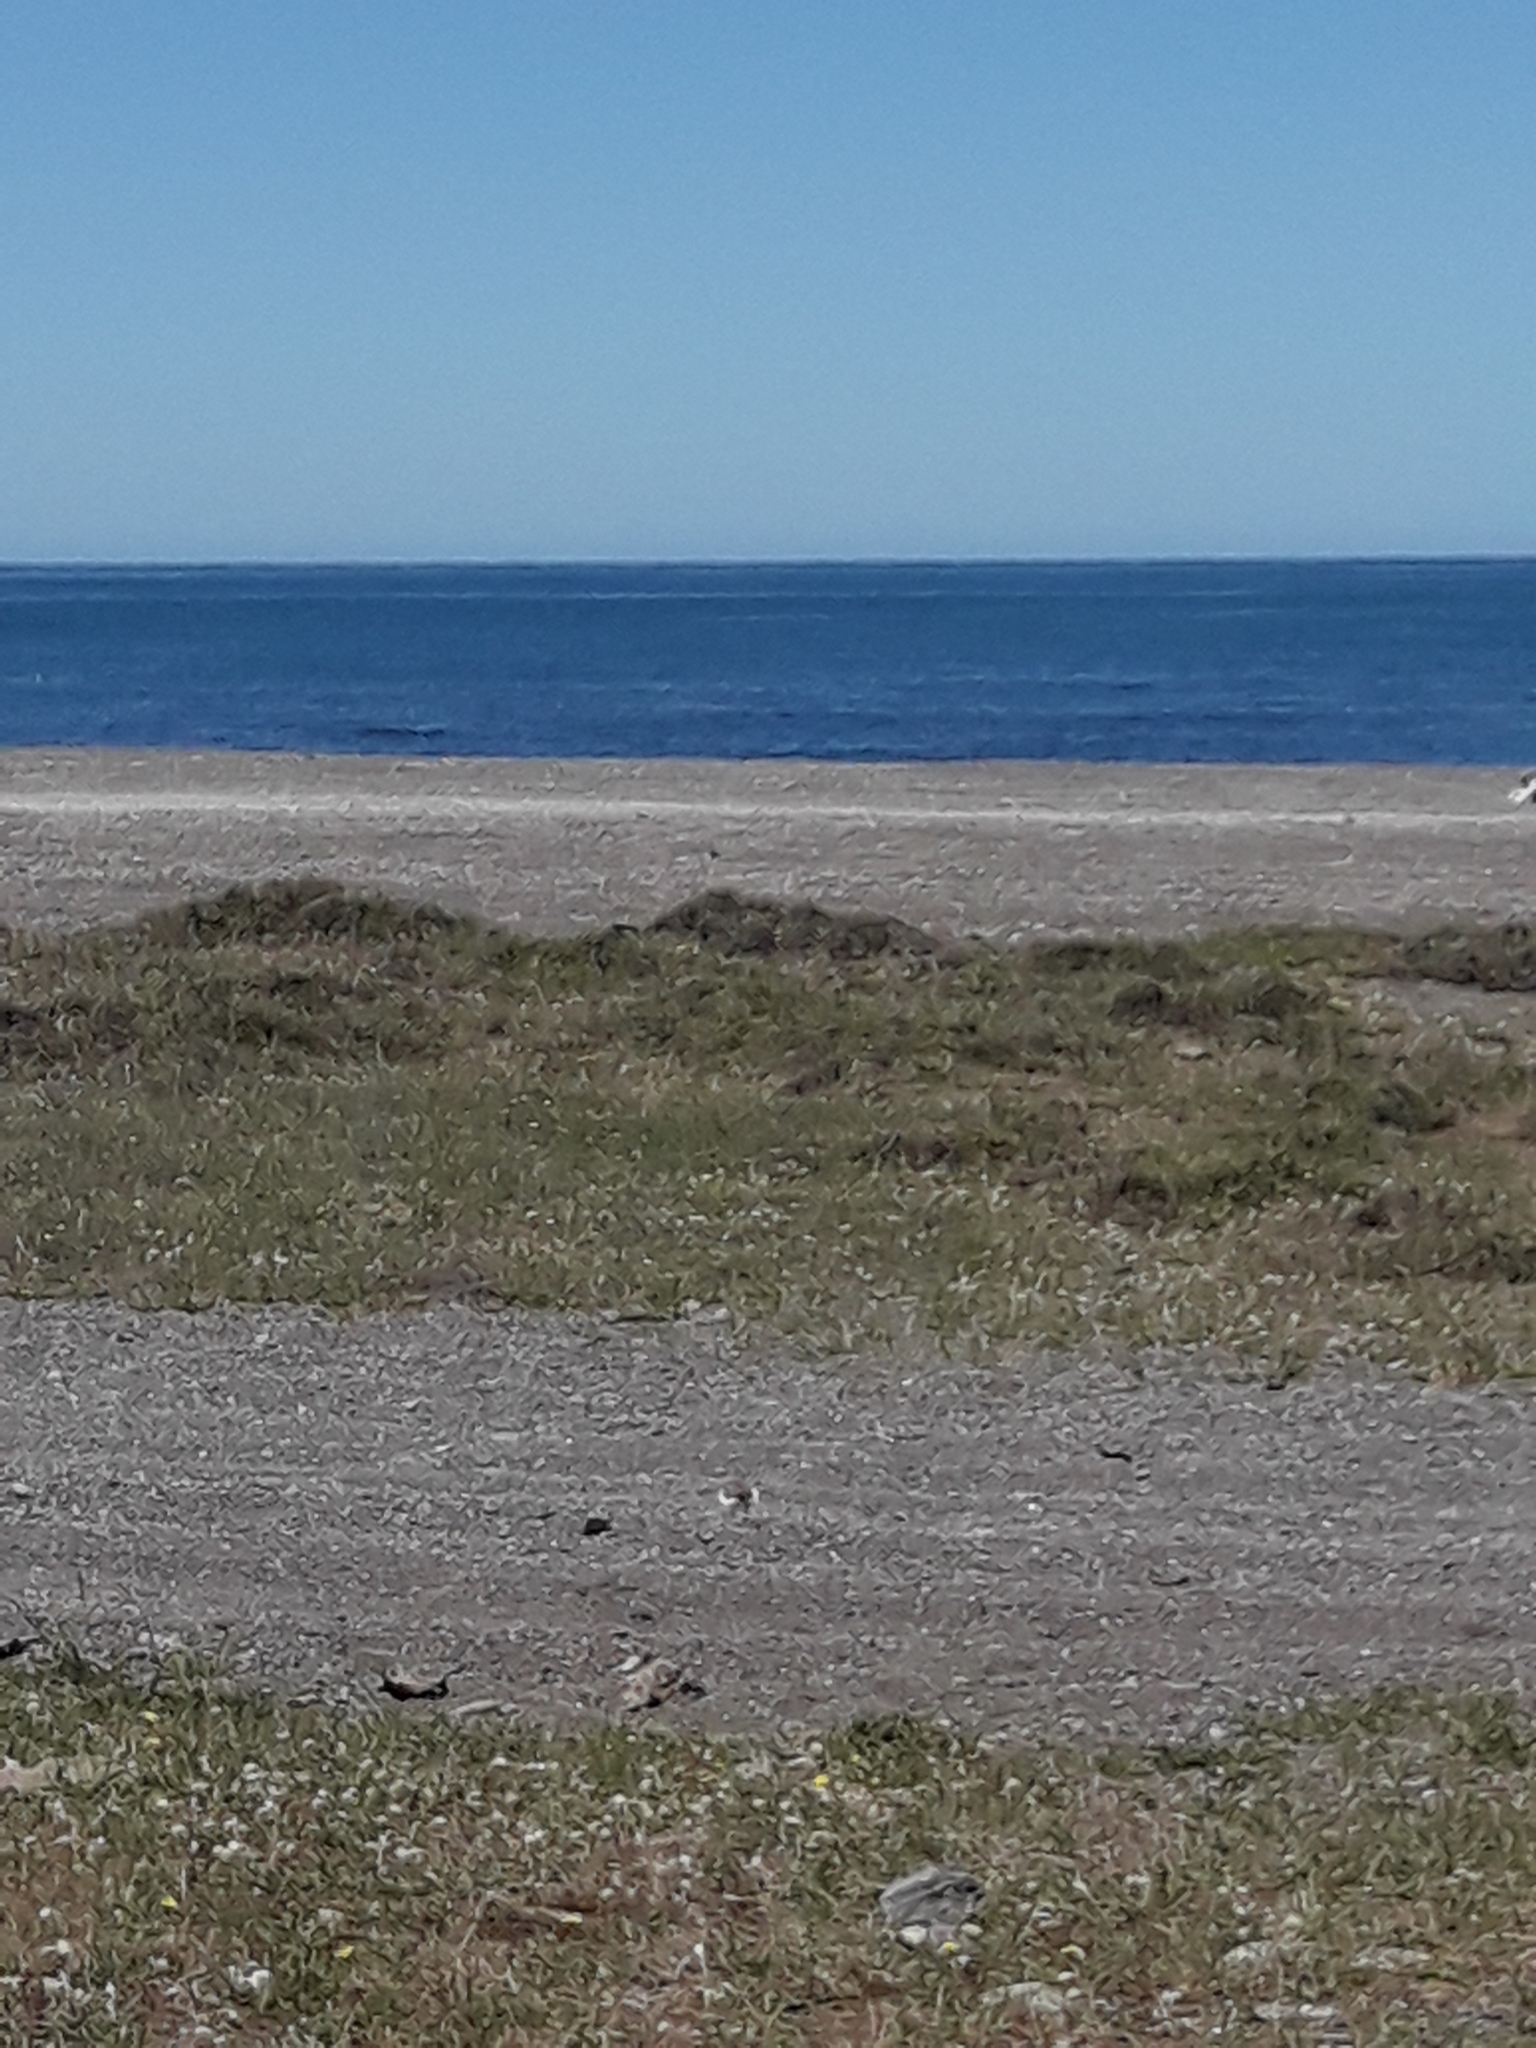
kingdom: Animalia
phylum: Chordata
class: Aves
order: Charadriiformes
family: Charadriidae
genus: Anarhynchus
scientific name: Anarhynchus
